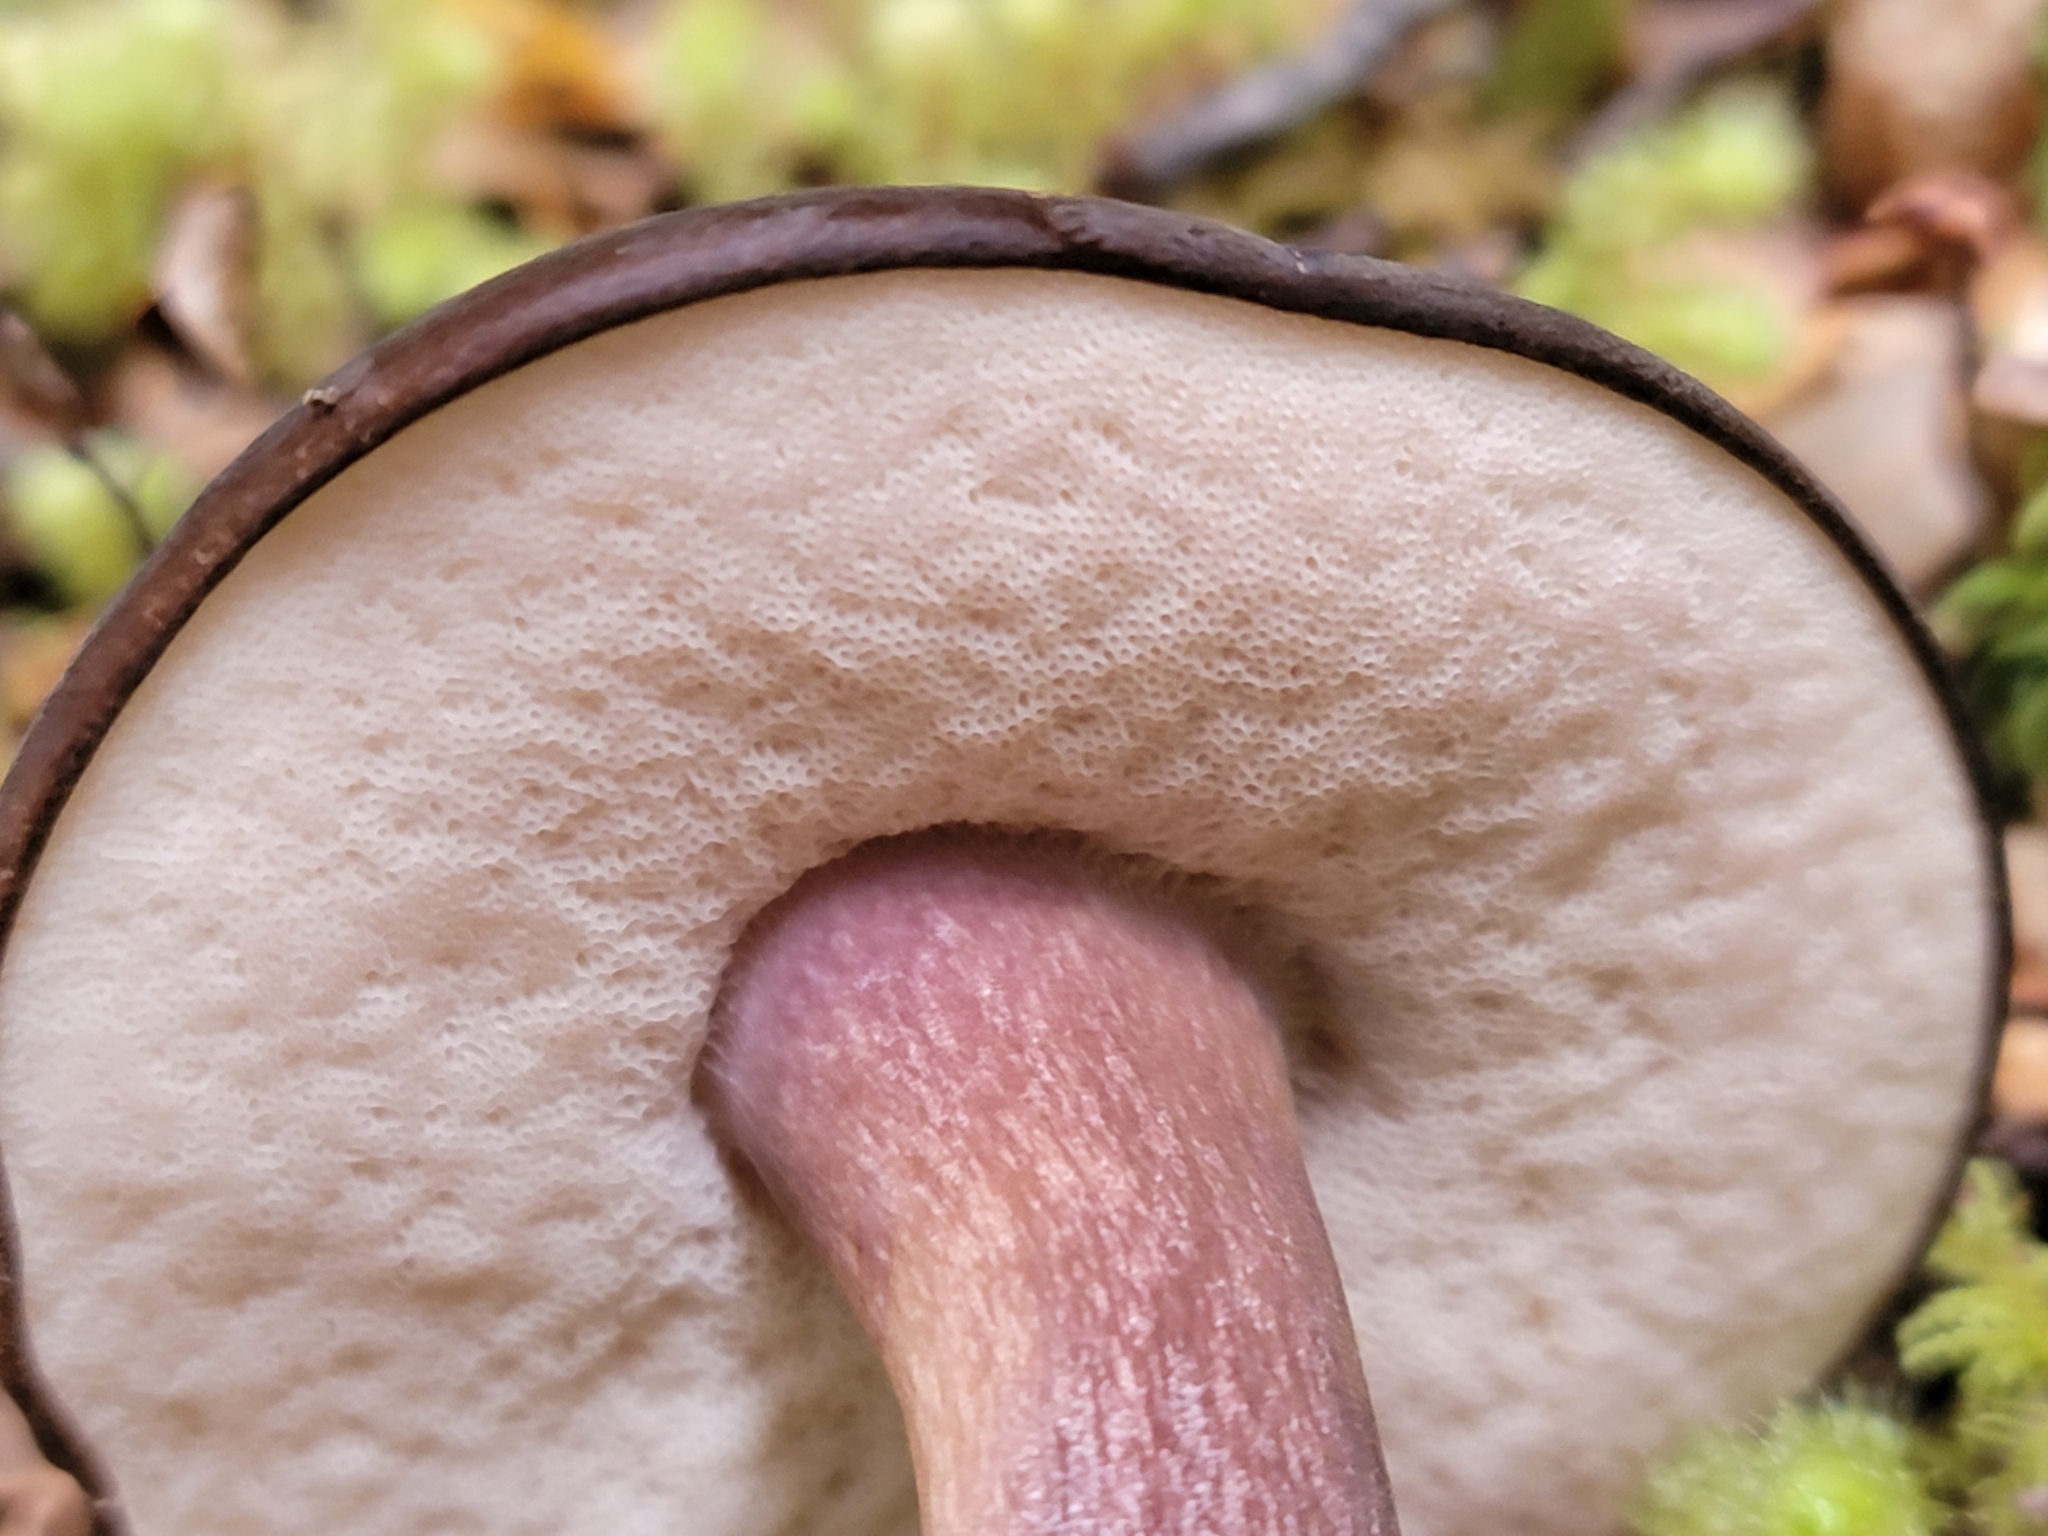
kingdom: Fungi
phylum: Basidiomycota
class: Agaricomycetes
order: Boletales
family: Boletaceae
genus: Porphyrellus
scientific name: Porphyrellus formosus
